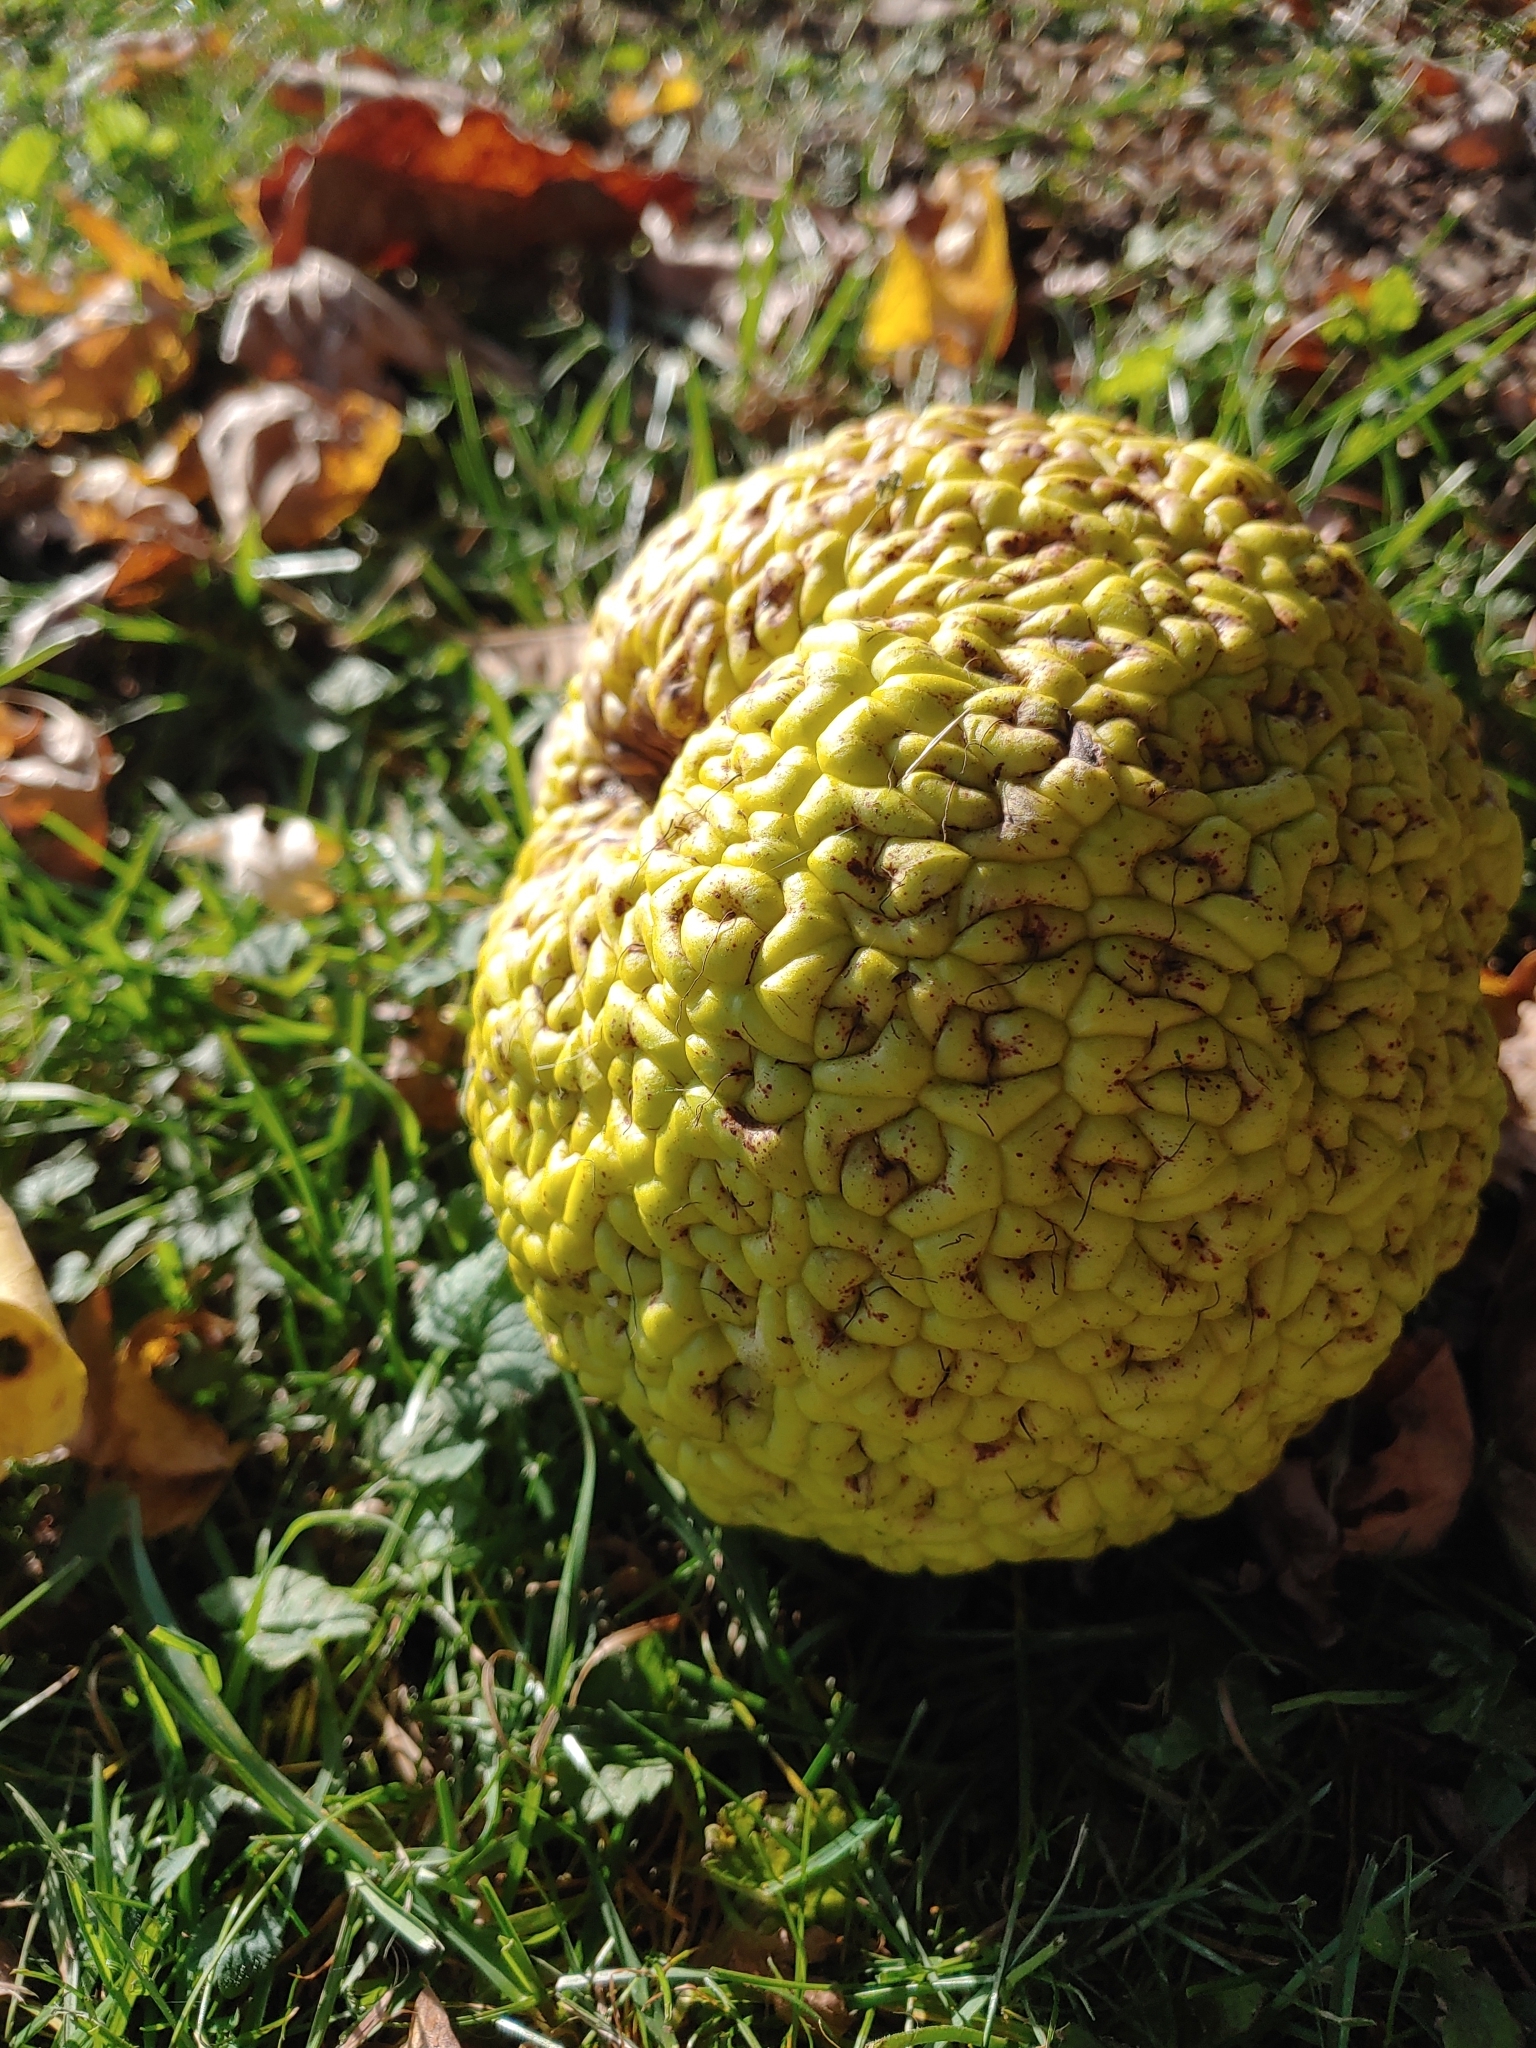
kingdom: Plantae
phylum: Tracheophyta
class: Magnoliopsida
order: Rosales
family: Moraceae
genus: Maclura
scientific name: Maclura pomifera
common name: Osage-orange
